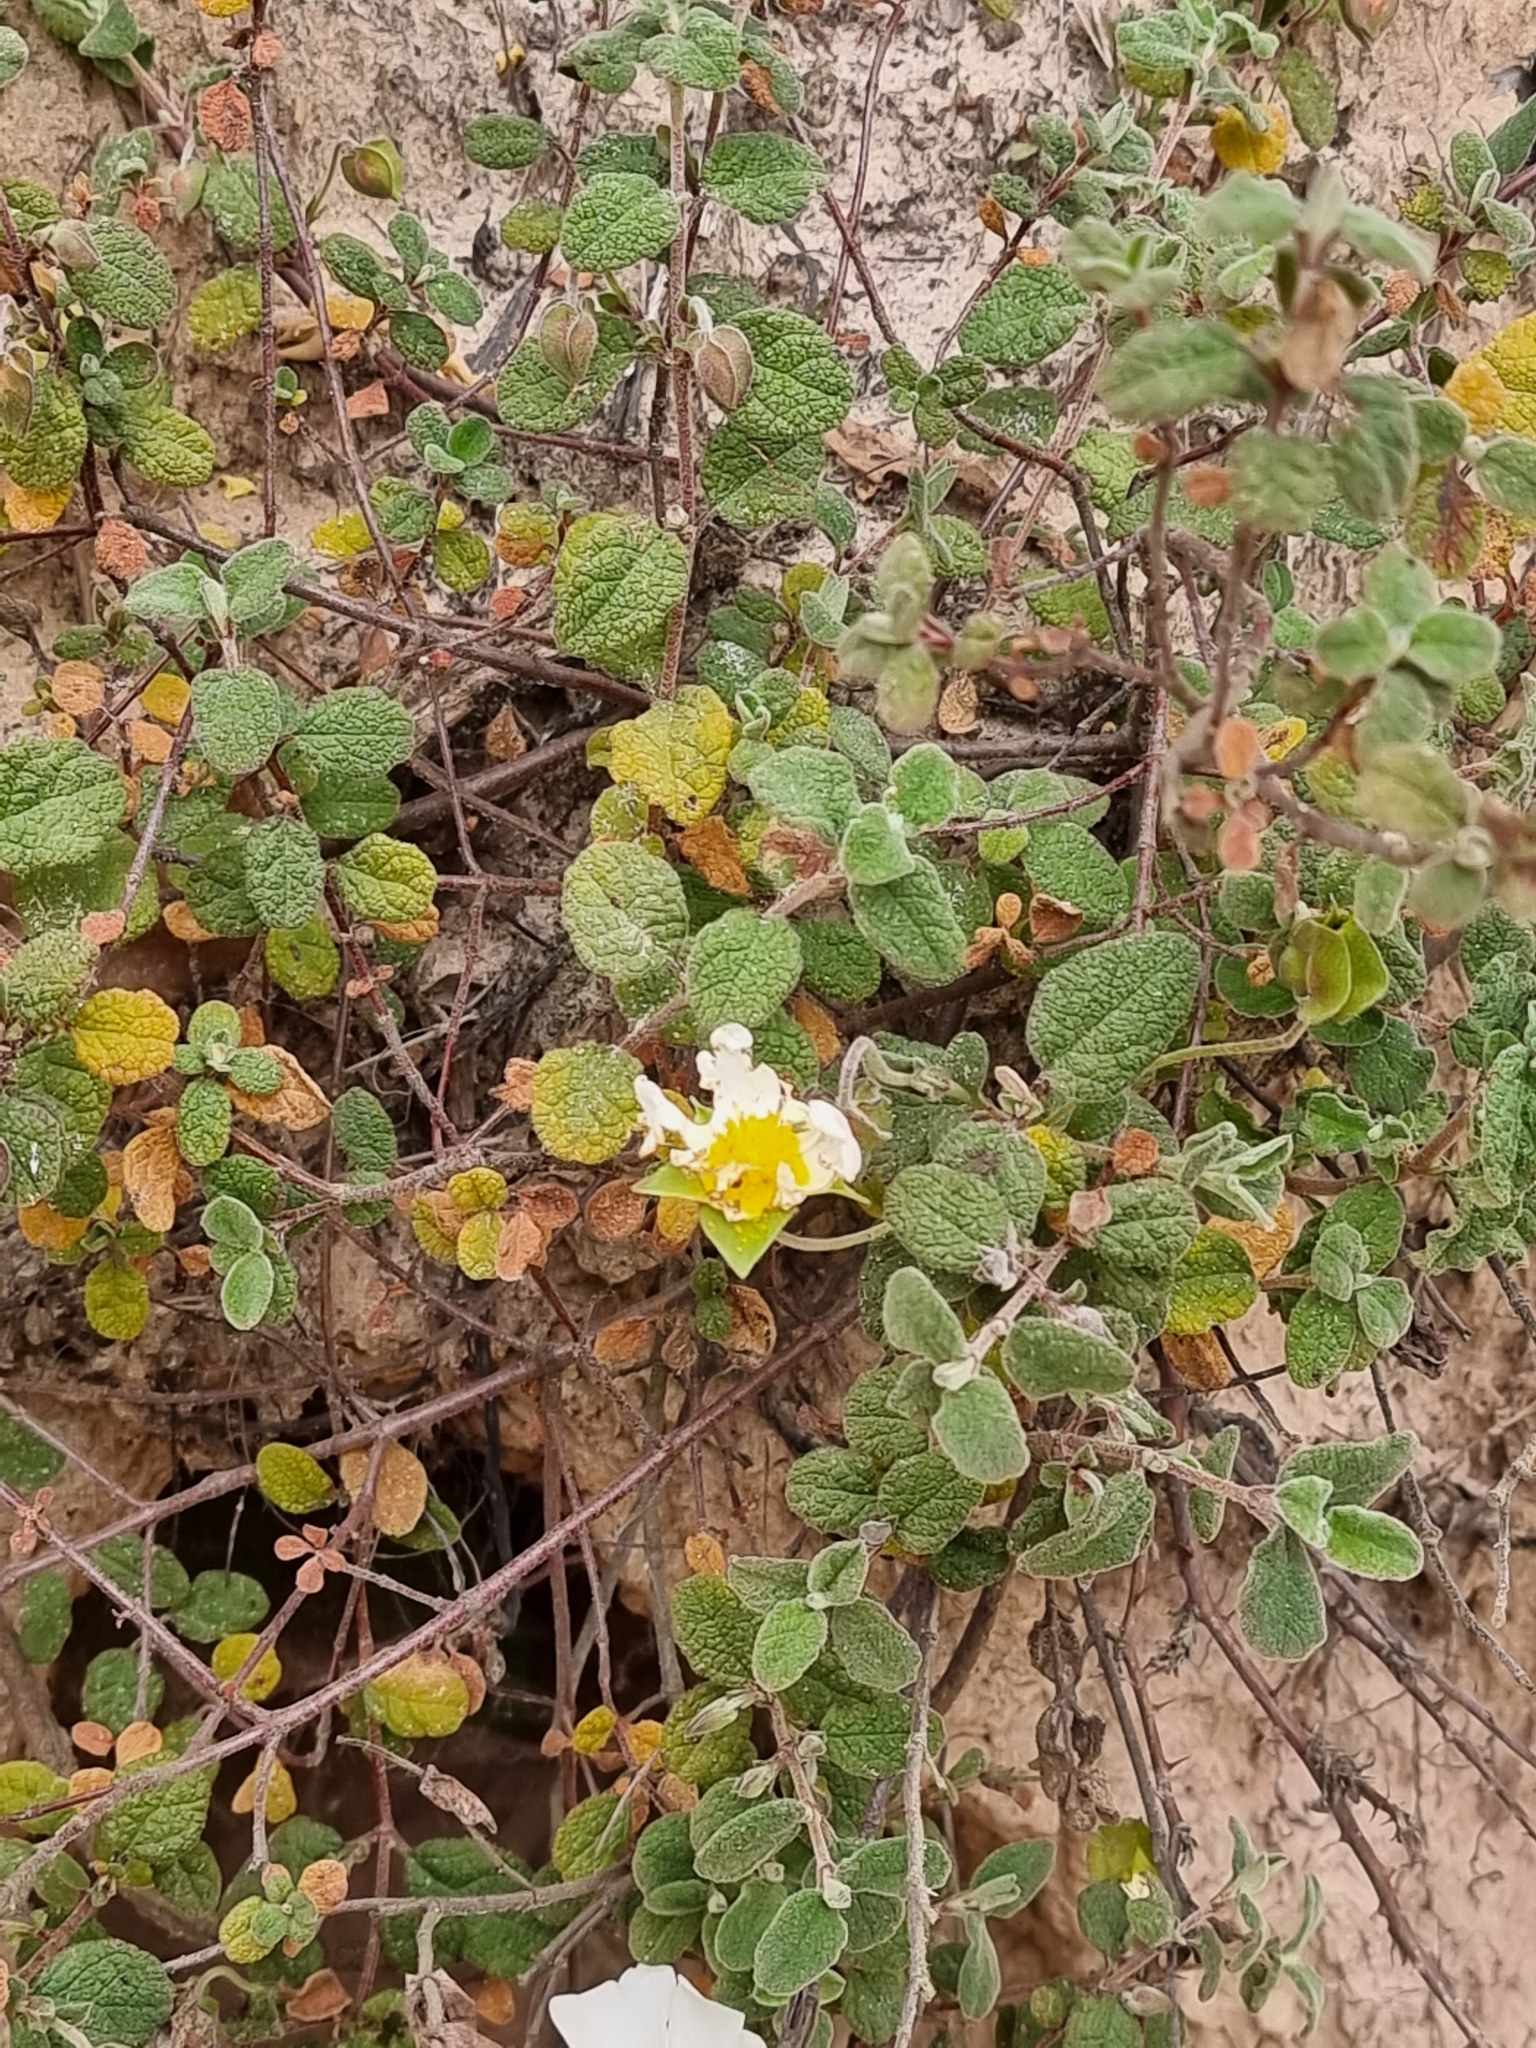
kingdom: Plantae
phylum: Tracheophyta
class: Magnoliopsida
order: Malvales
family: Cistaceae
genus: Cistus
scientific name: Cistus salviifolius
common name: Salvia cistus
